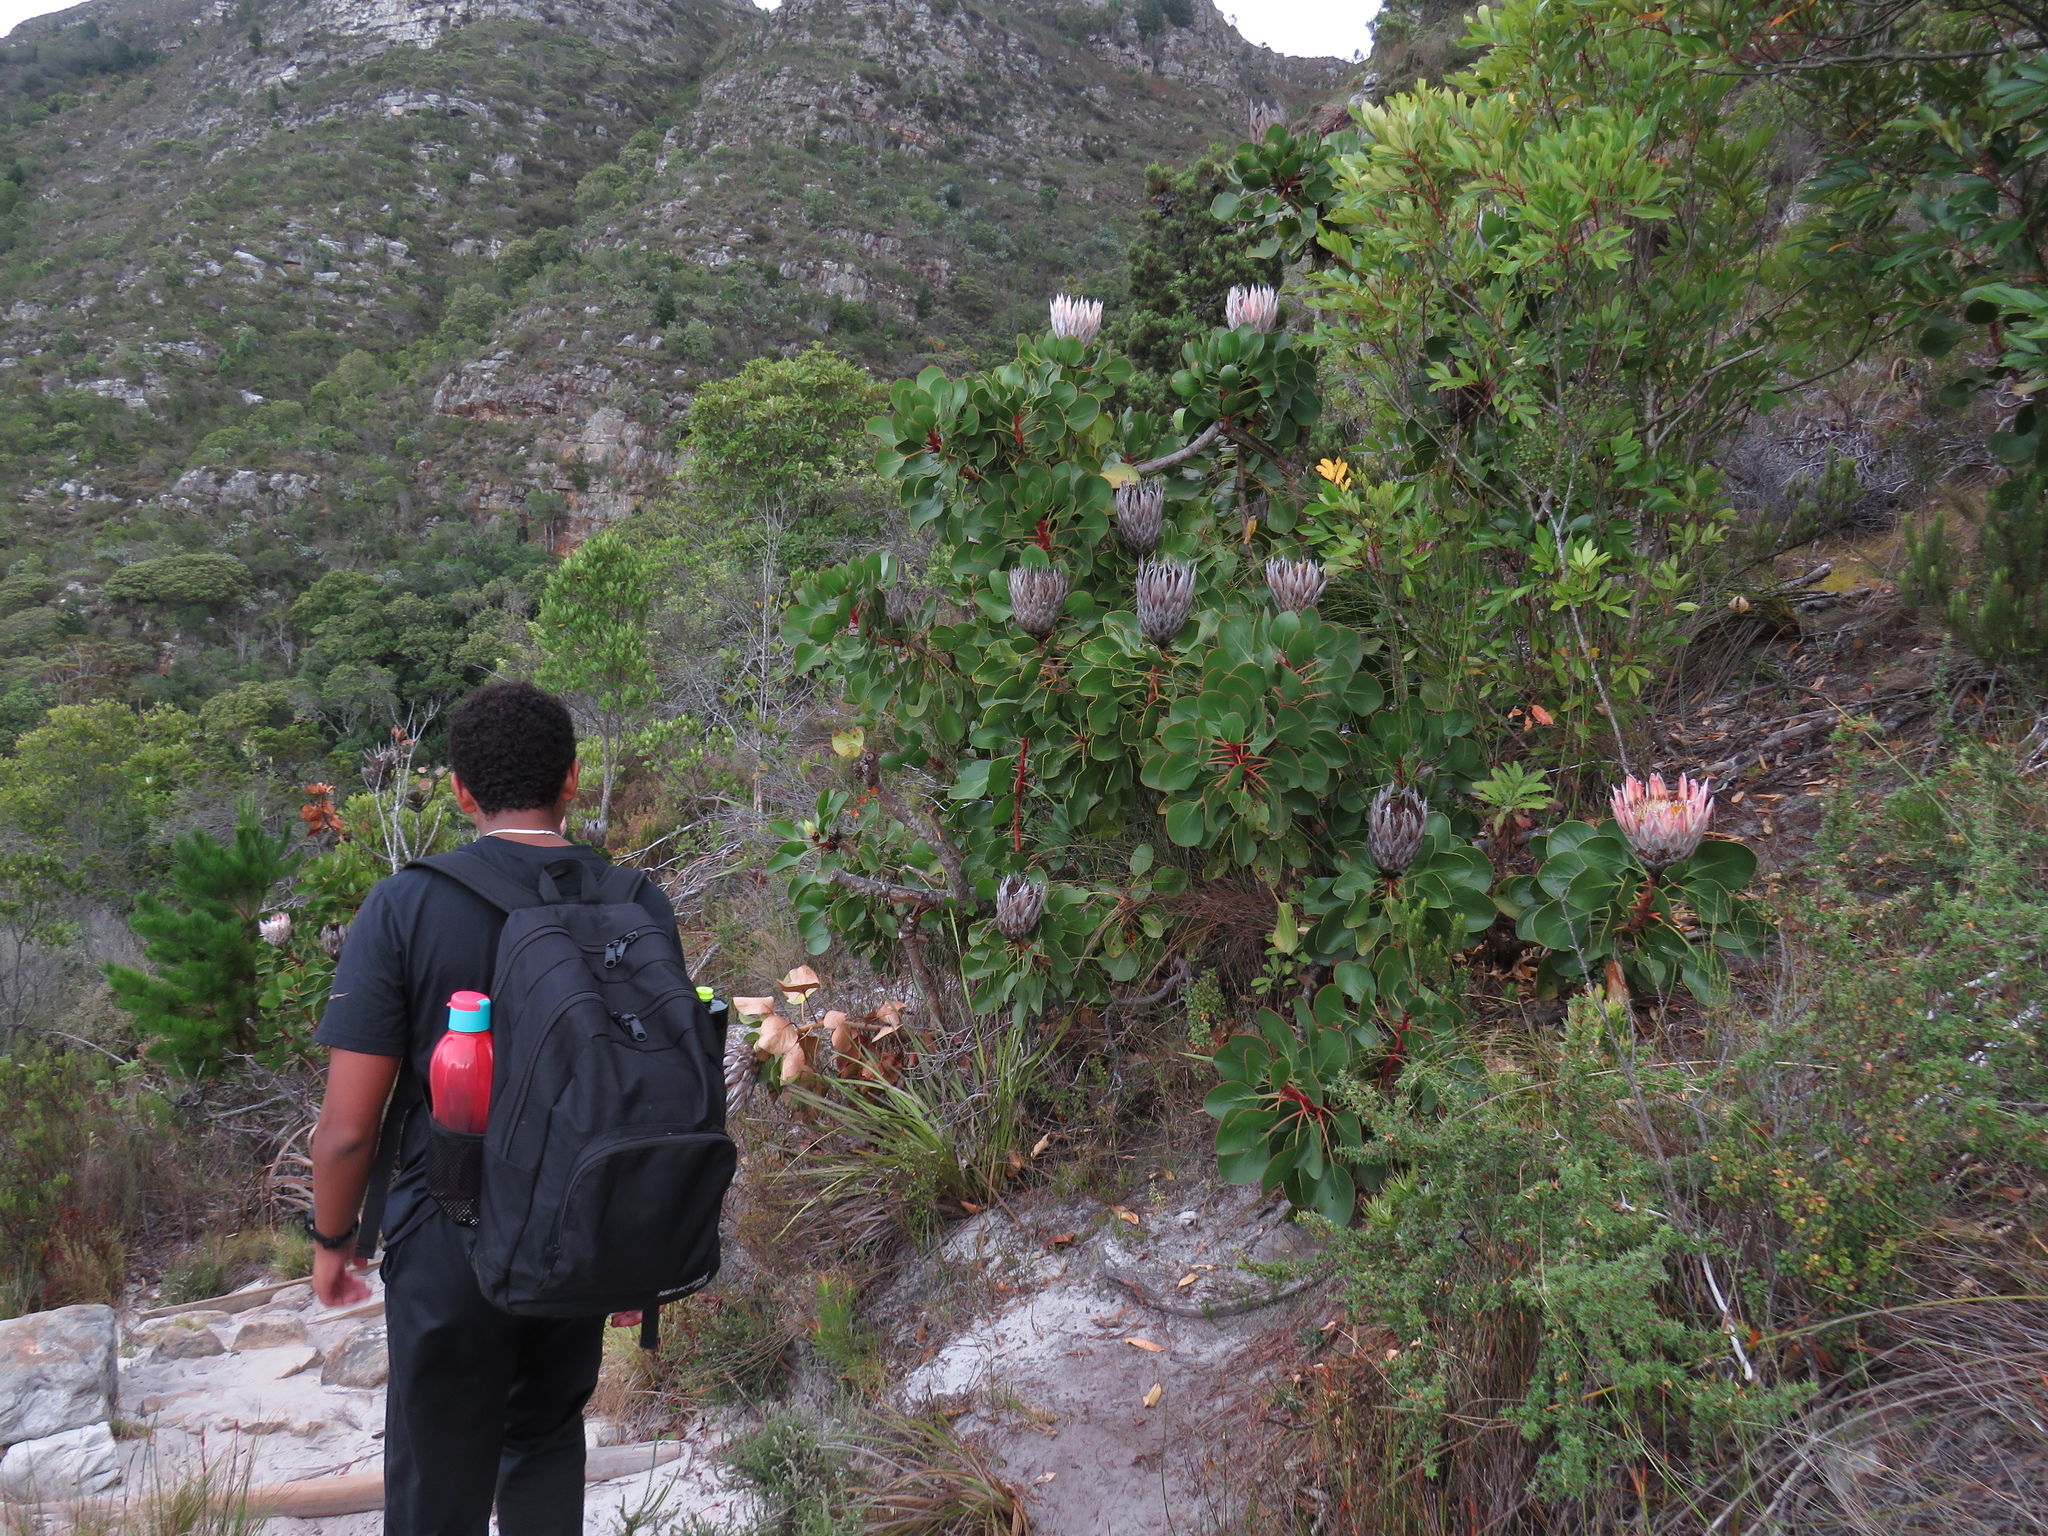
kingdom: Plantae
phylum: Tracheophyta
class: Magnoliopsida
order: Proteales
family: Proteaceae
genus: Protea
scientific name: Protea cynaroides
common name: King protea
